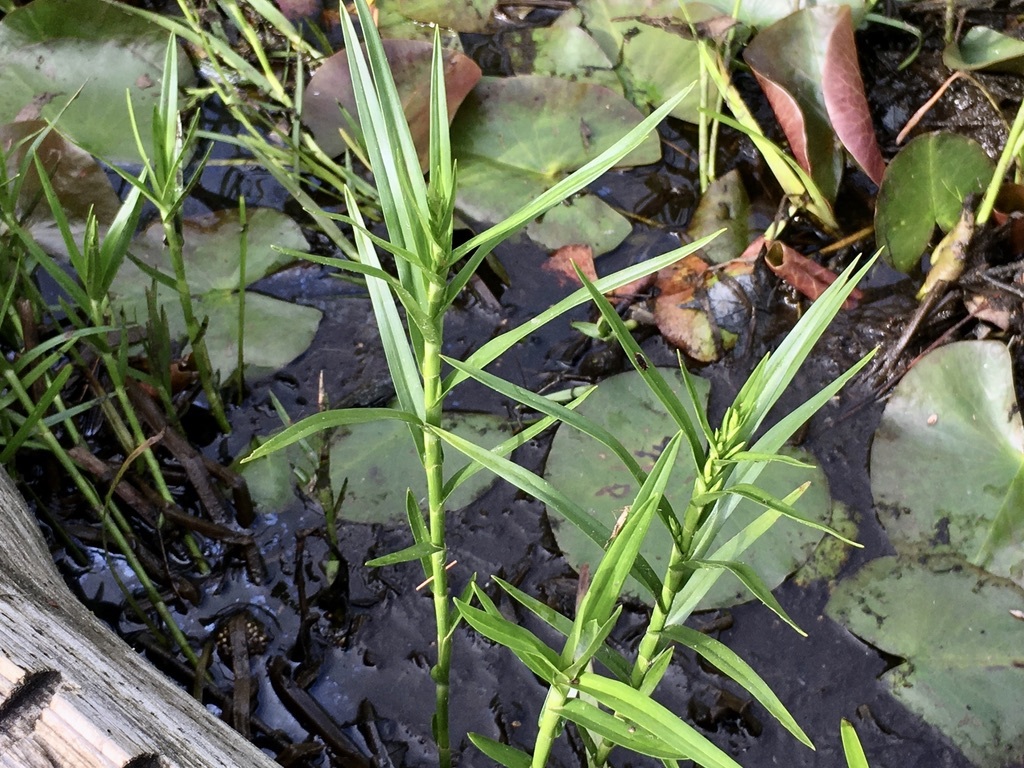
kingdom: Plantae
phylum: Tracheophyta
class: Liliopsida
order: Poales
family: Cyperaceae
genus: Dulichium
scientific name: Dulichium arundinaceum
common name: Three-way sedge
